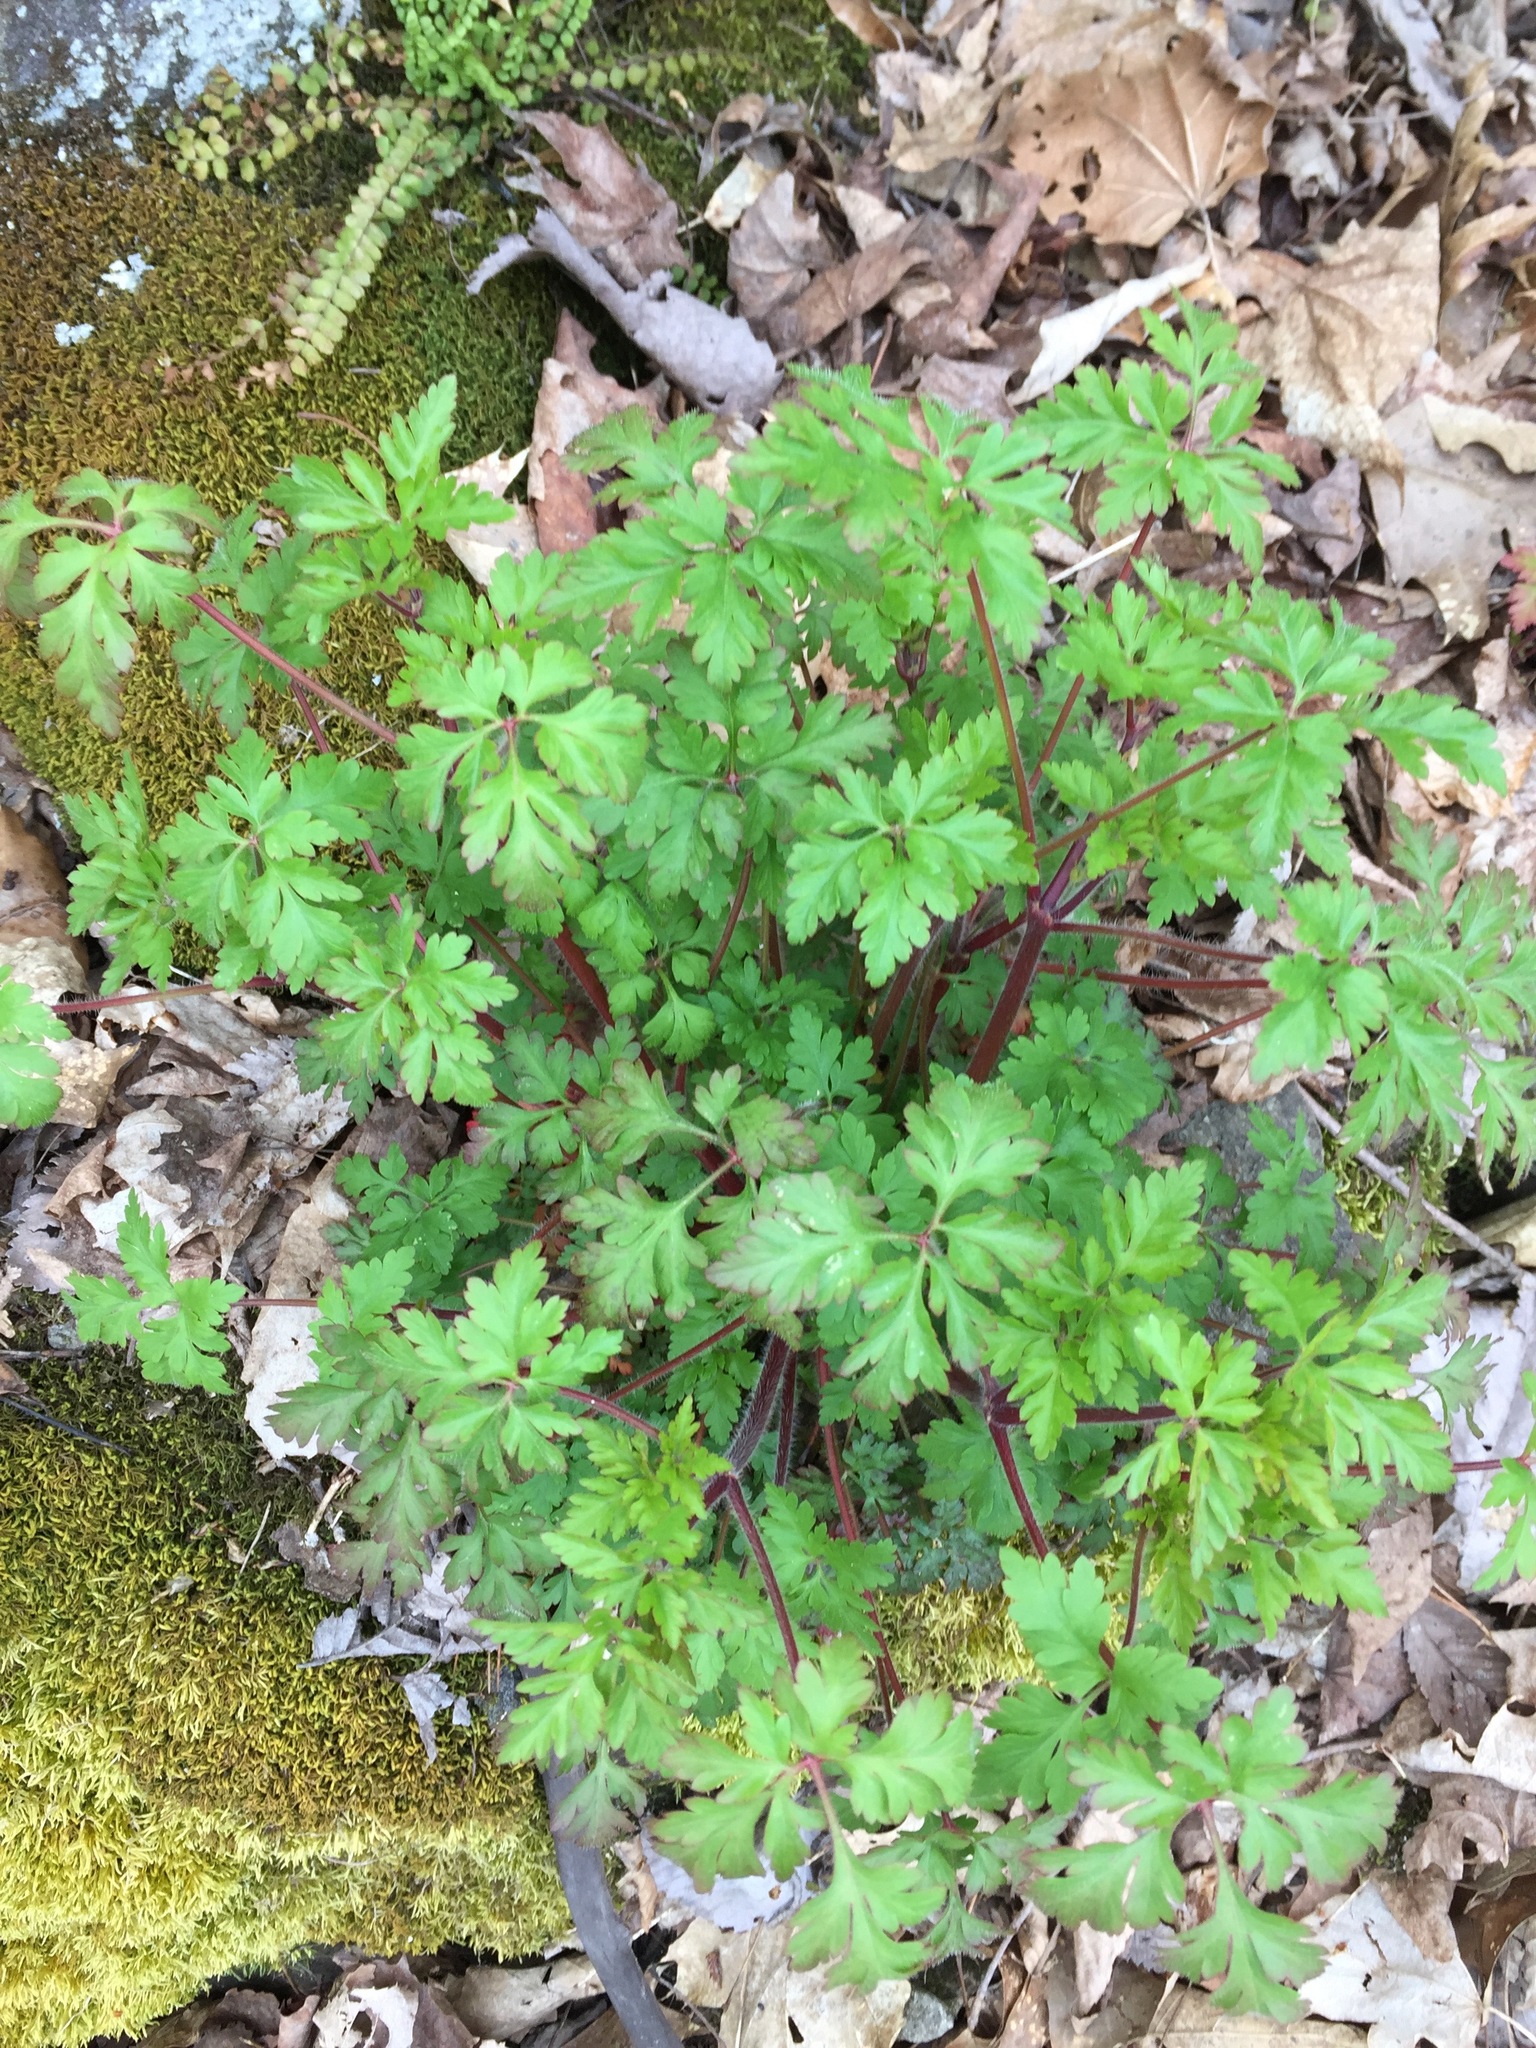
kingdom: Plantae
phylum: Tracheophyta
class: Magnoliopsida
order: Geraniales
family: Geraniaceae
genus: Geranium
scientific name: Geranium robertianum
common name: Herb-robert
